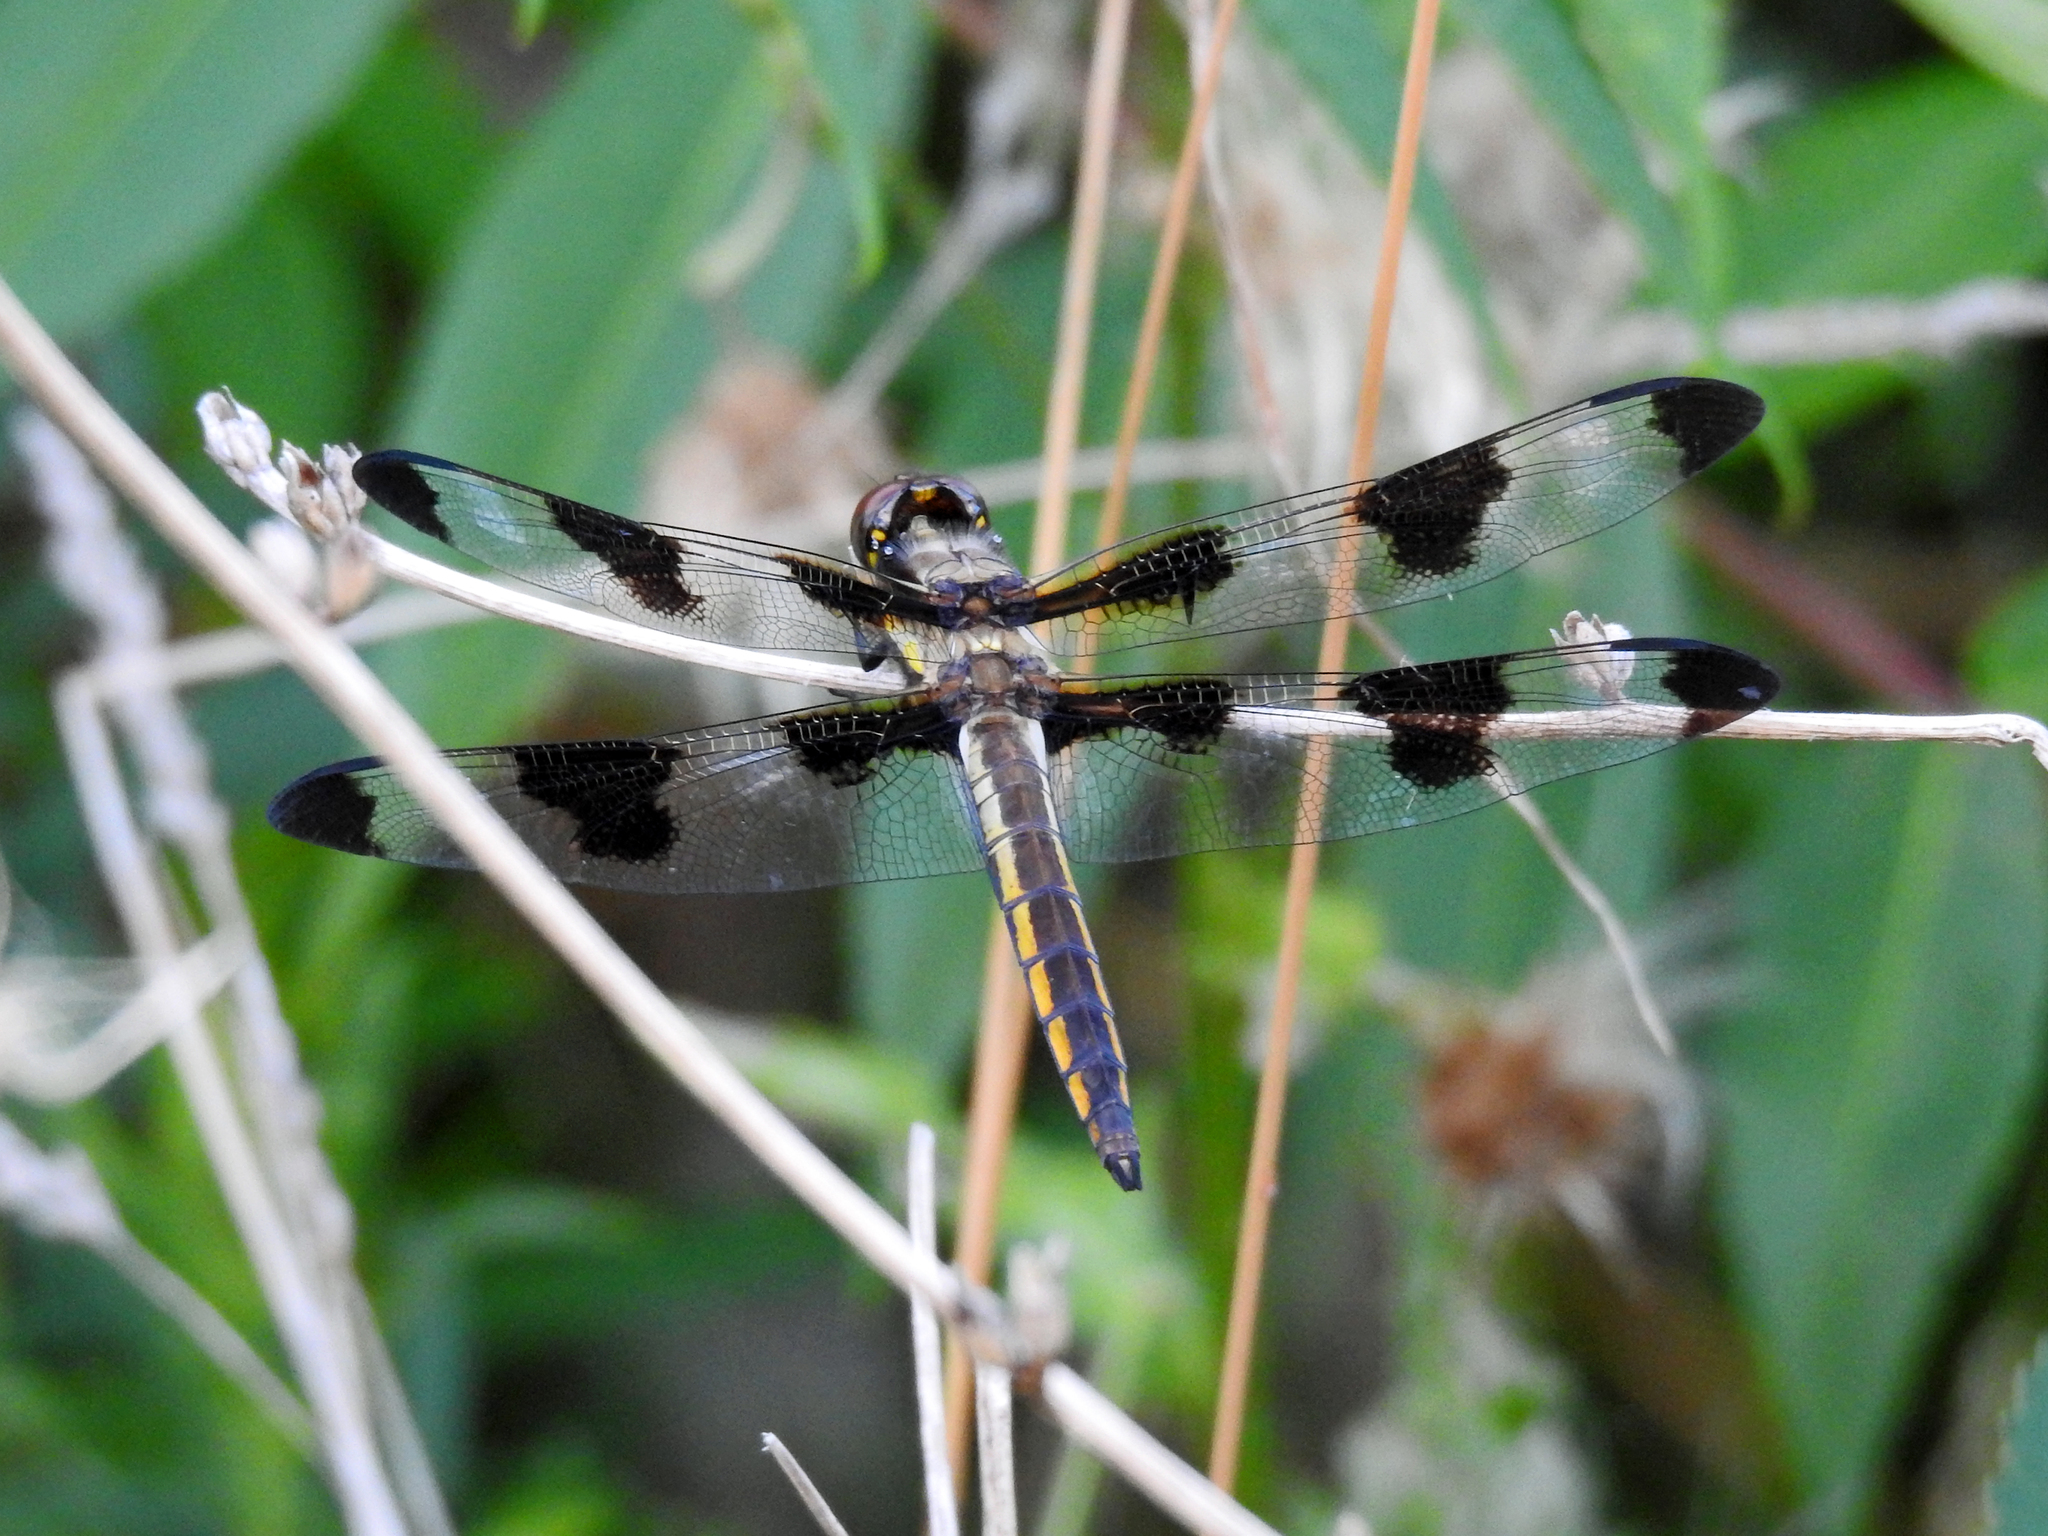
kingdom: Animalia
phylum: Arthropoda
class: Insecta
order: Odonata
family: Libellulidae
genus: Libellula
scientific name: Libellula pulchella
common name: Twelve-spotted skimmer
